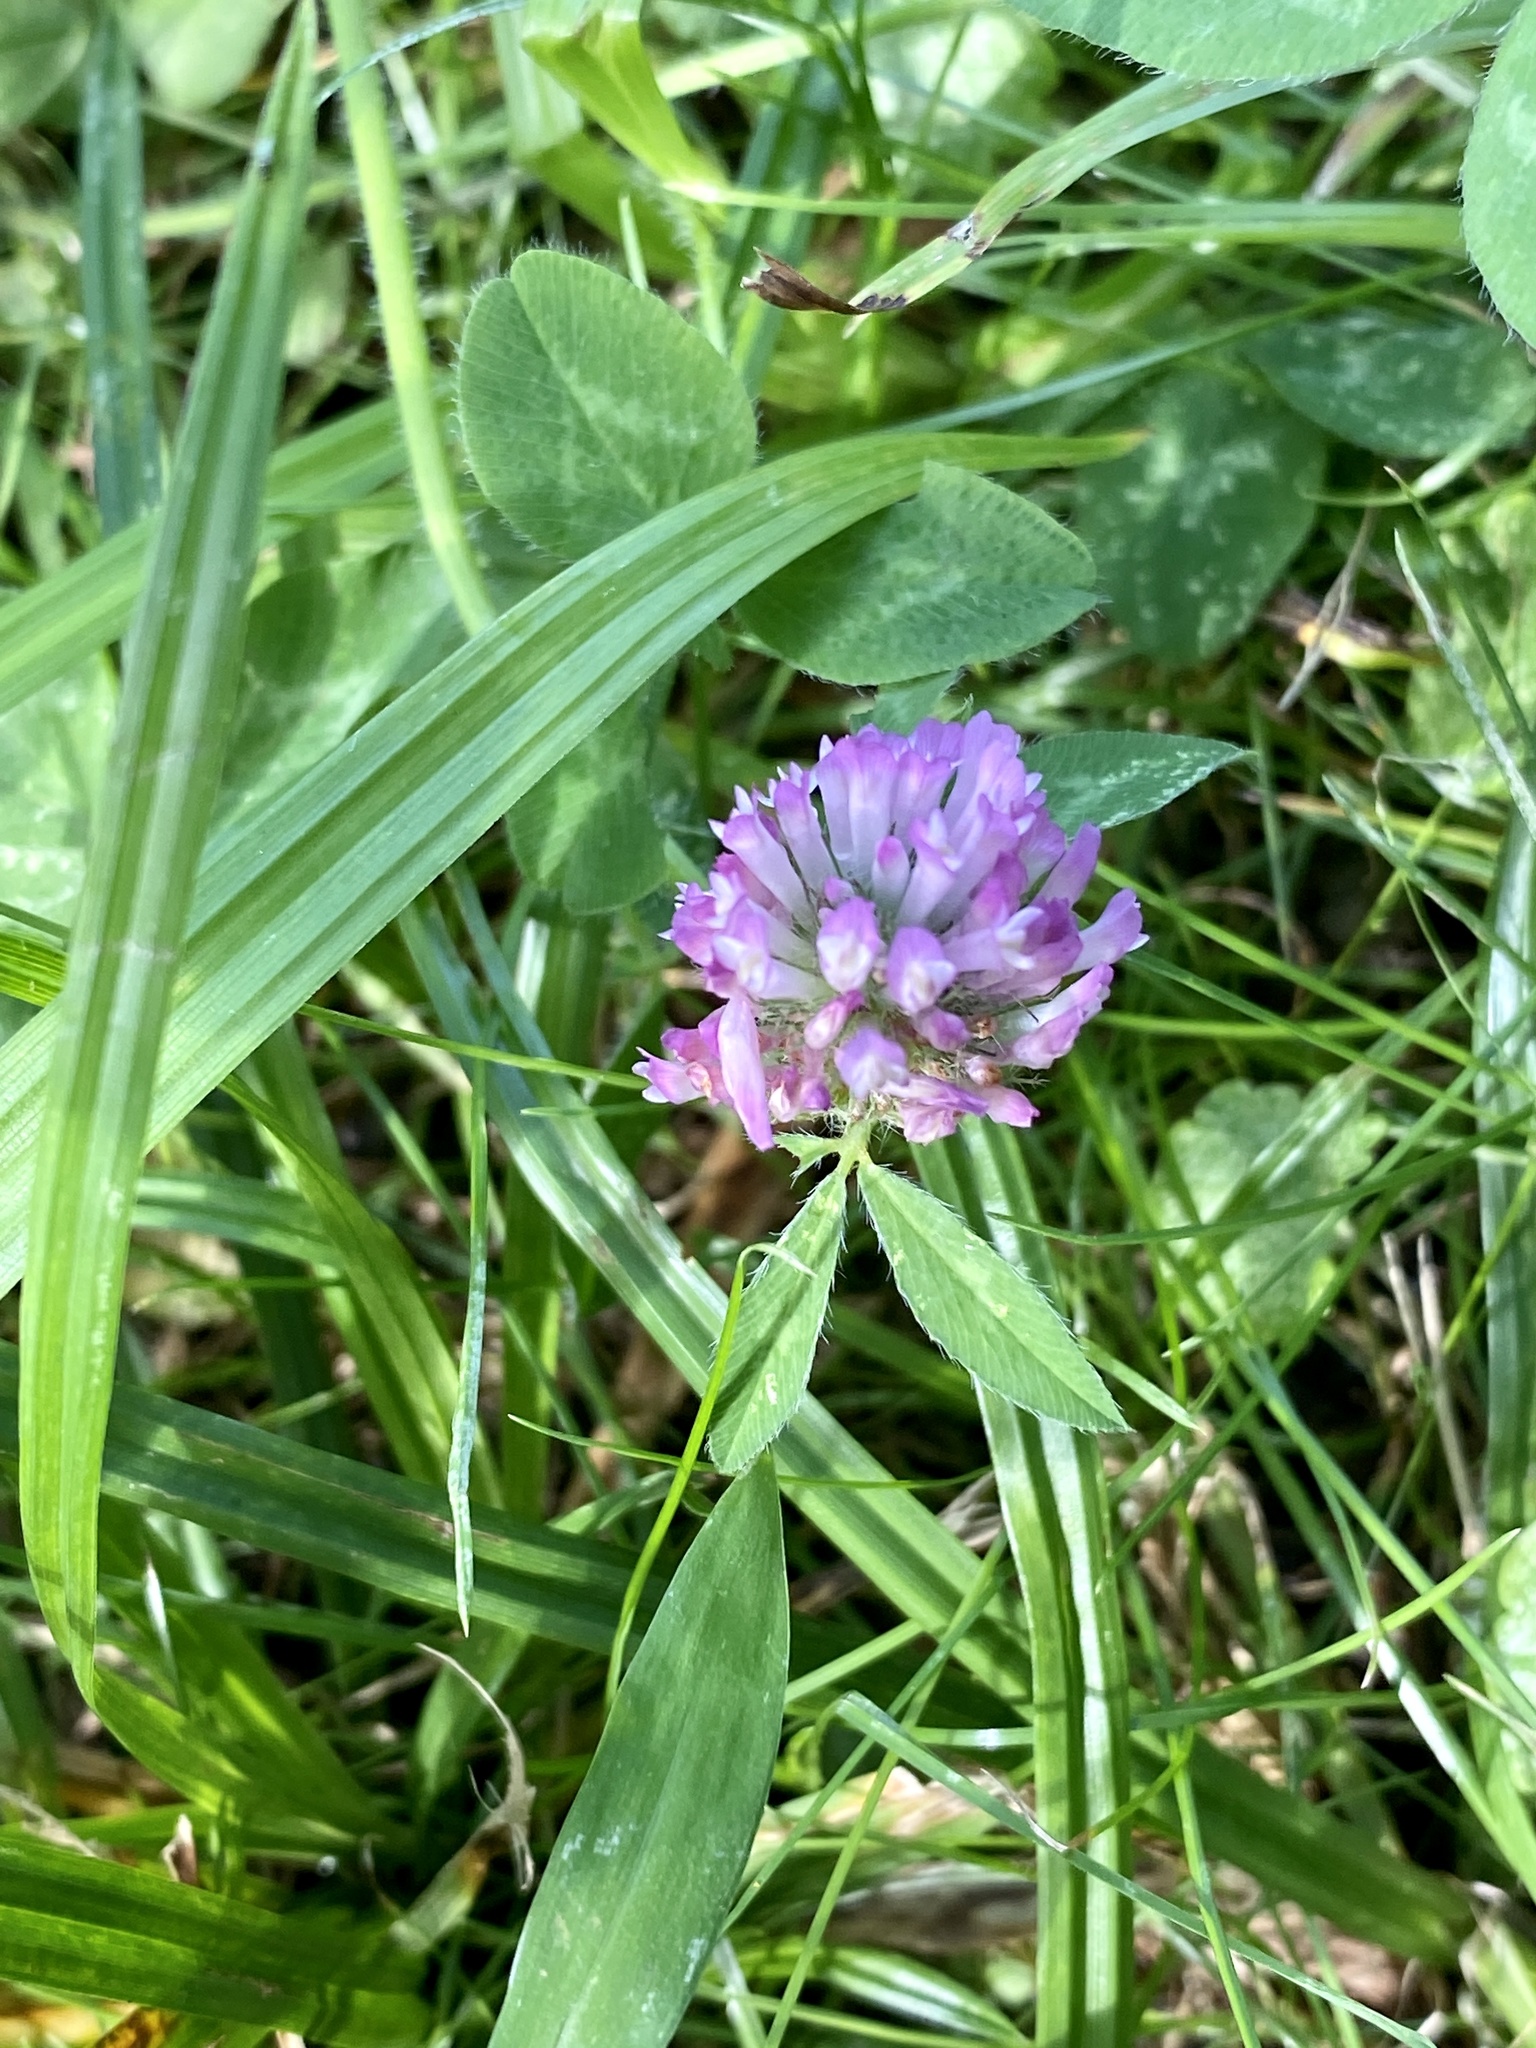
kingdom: Plantae
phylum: Tracheophyta
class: Magnoliopsida
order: Fabales
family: Fabaceae
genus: Trifolium
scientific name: Trifolium pratense
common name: Red clover
